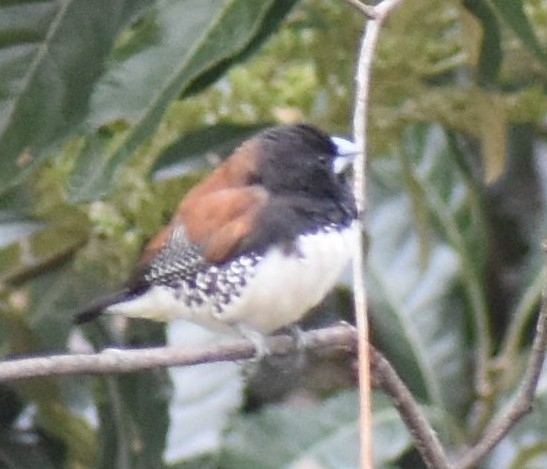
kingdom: Animalia
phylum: Chordata
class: Aves
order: Passeriformes
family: Estrildidae
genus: Lonchura
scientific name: Lonchura nigriceps
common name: Red-backed mannikin
